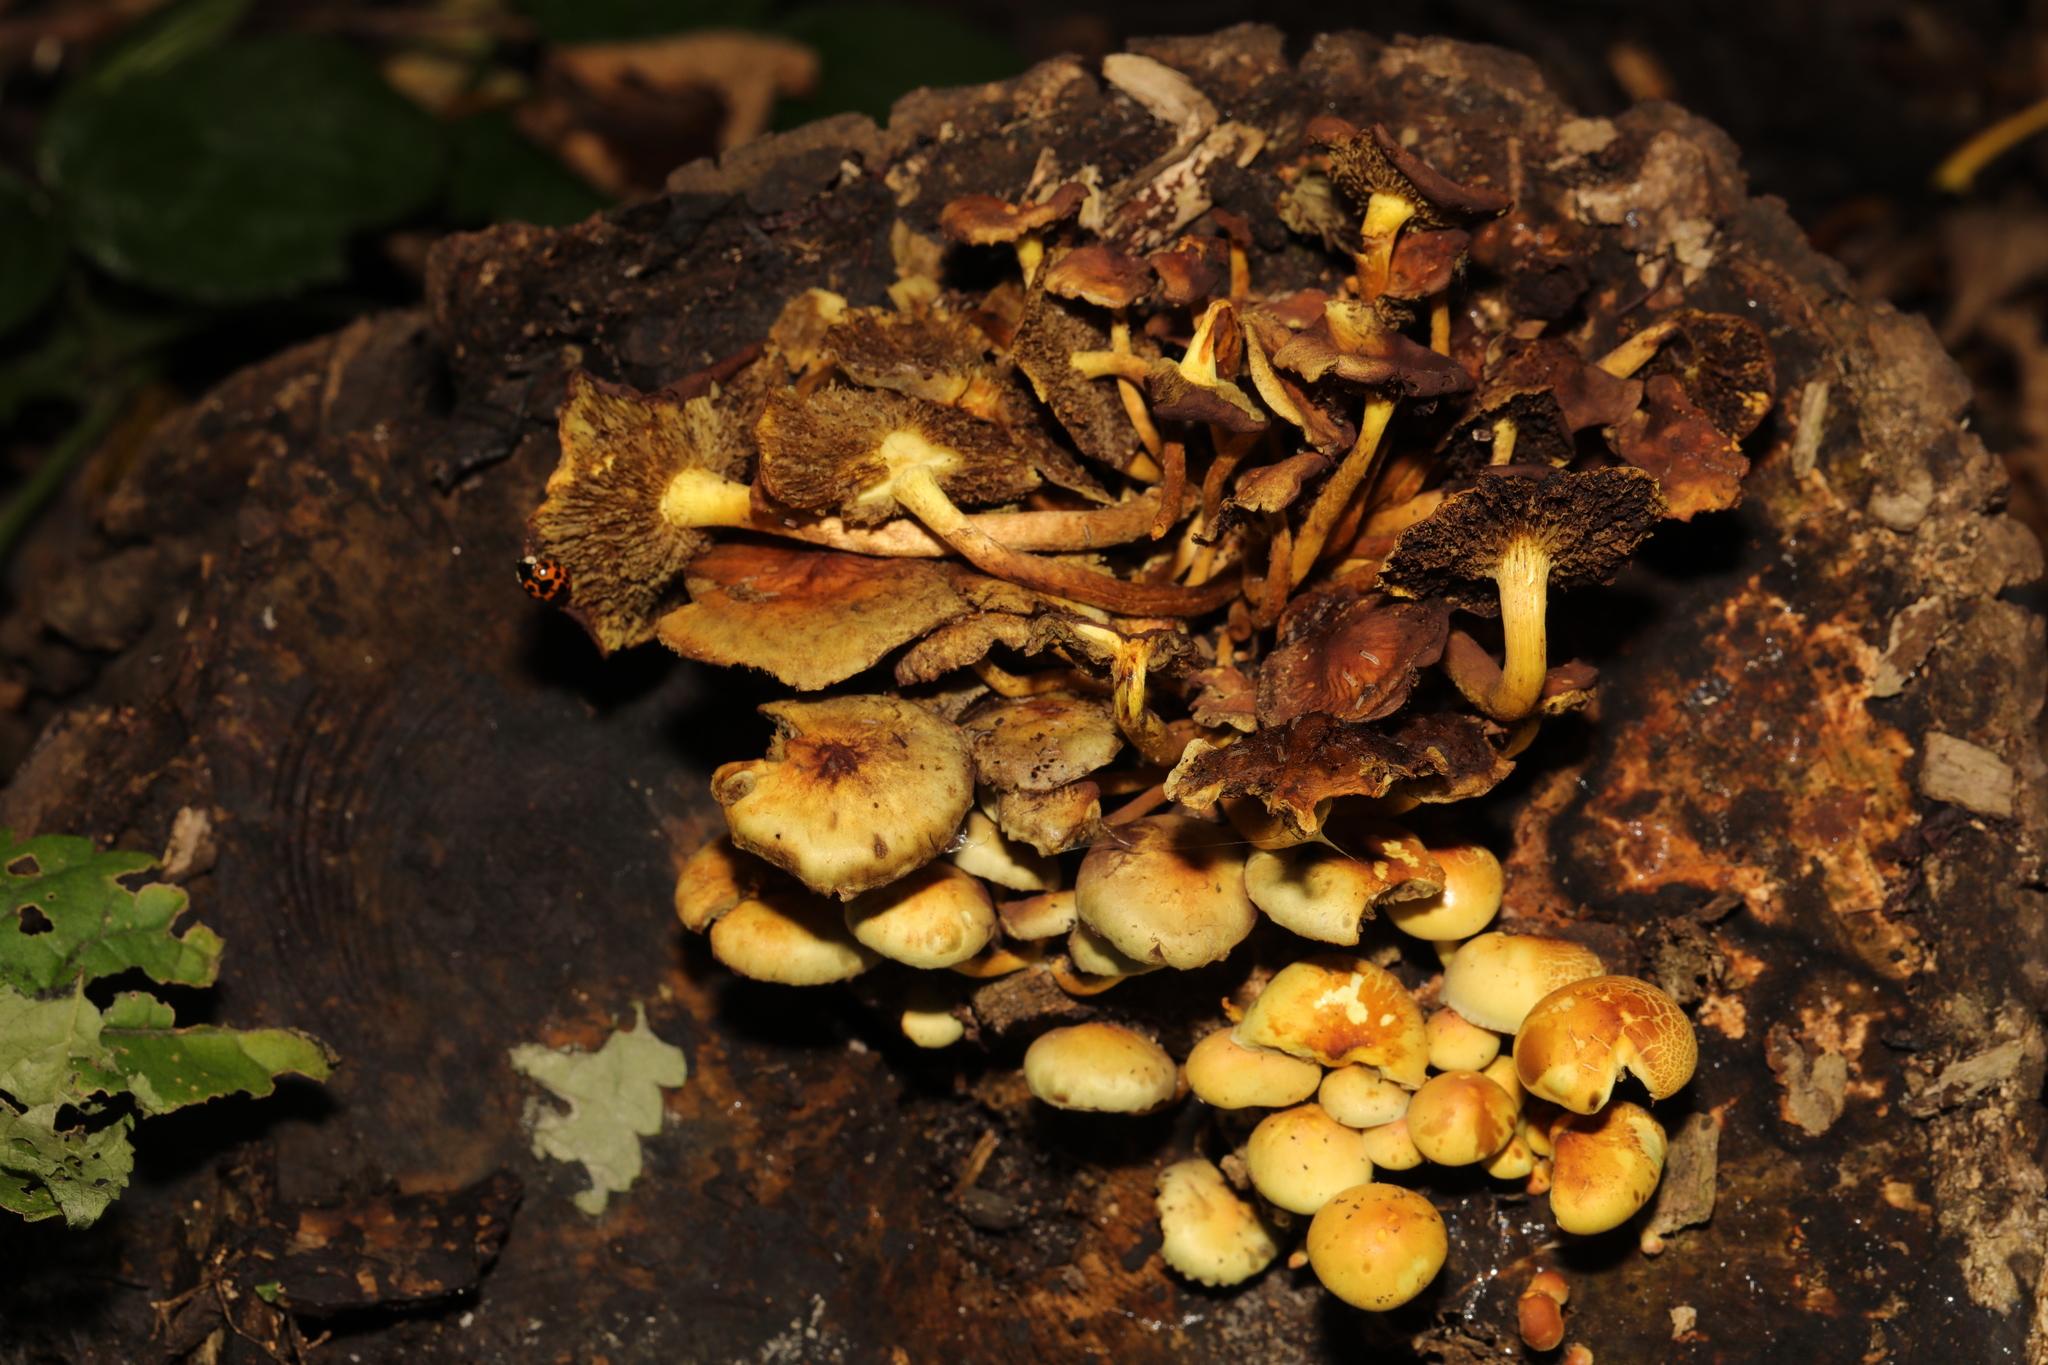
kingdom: Fungi
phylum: Basidiomycota
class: Agaricomycetes
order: Agaricales
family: Strophariaceae
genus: Hypholoma
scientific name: Hypholoma fasciculare
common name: Sulphur tuft
